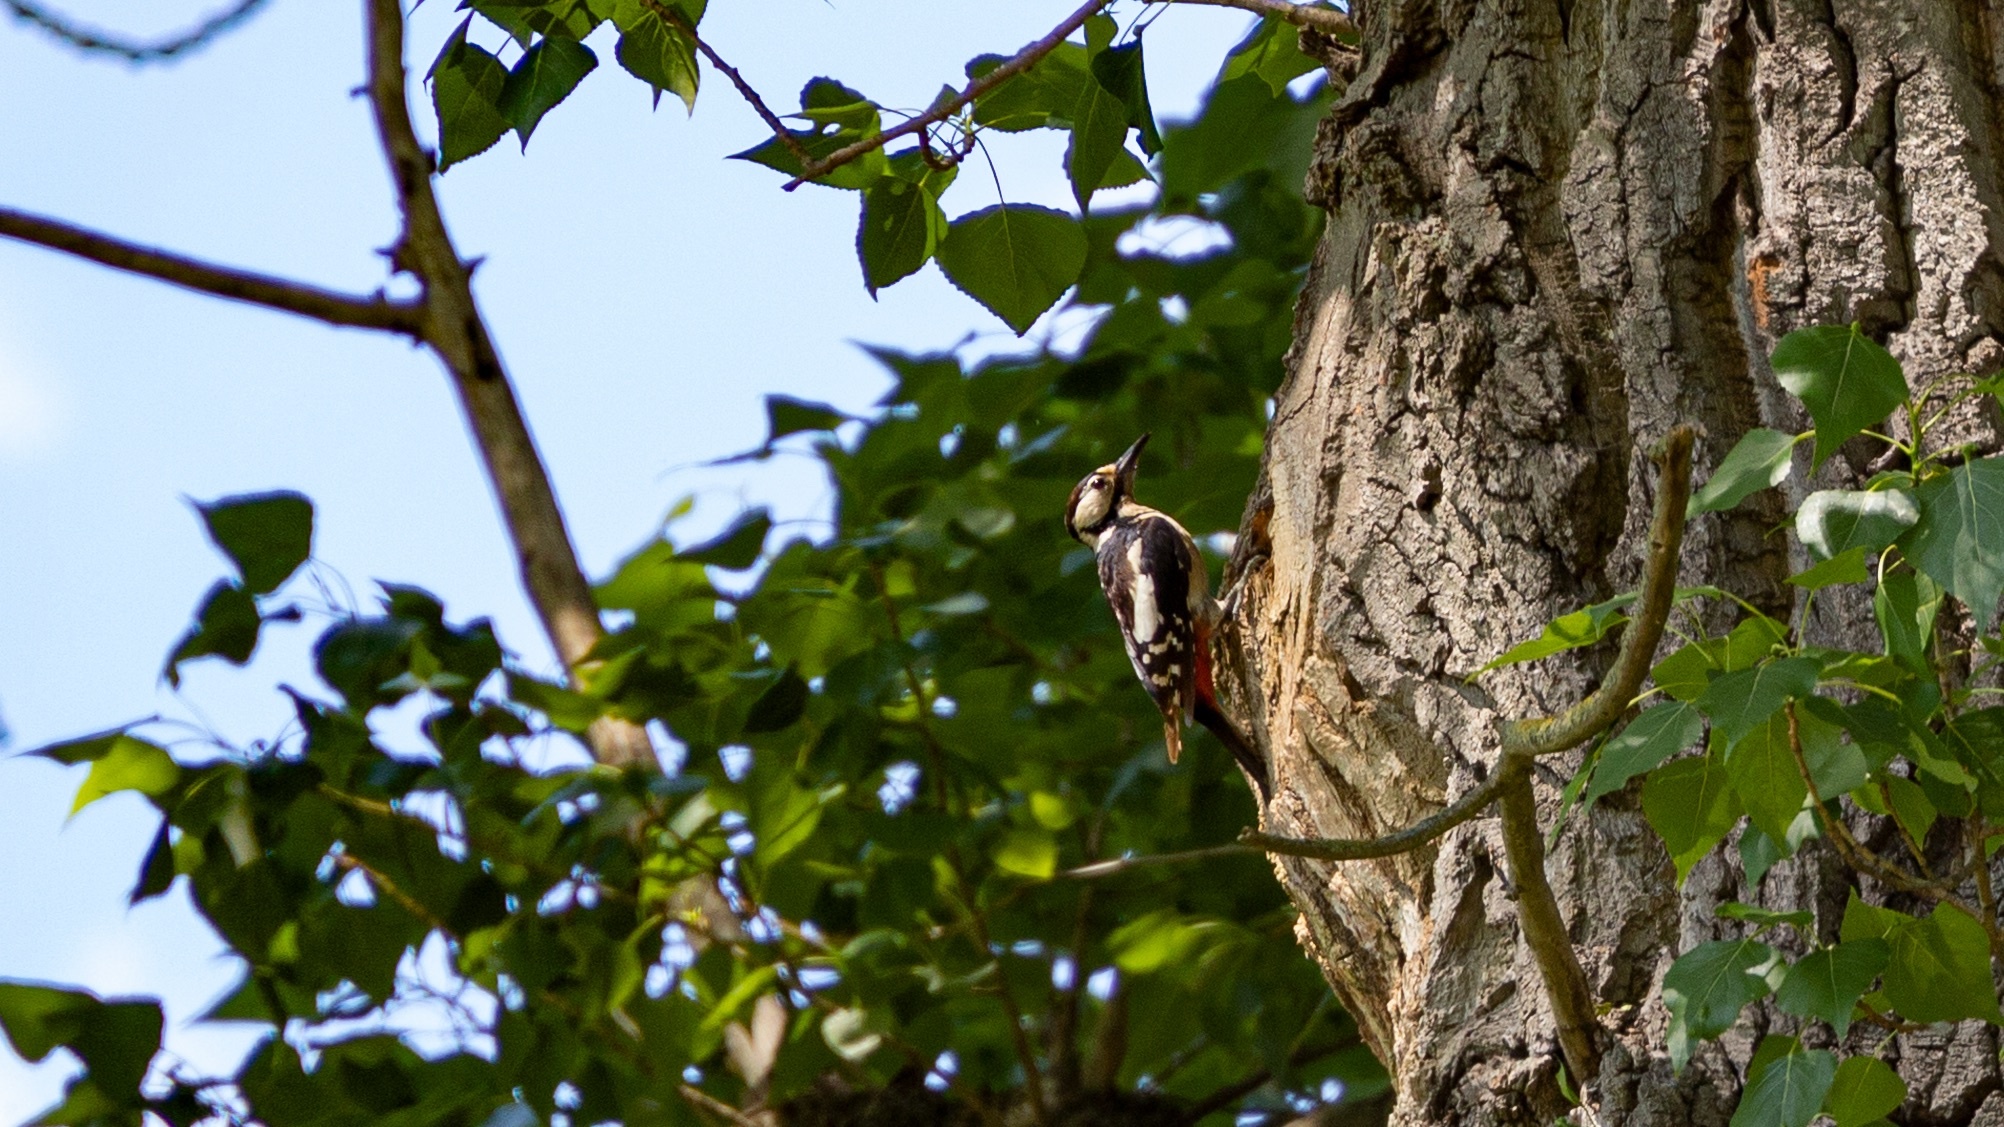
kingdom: Animalia
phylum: Chordata
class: Aves
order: Piciformes
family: Picidae
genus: Dendrocopos
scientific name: Dendrocopos major
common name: Great spotted woodpecker
